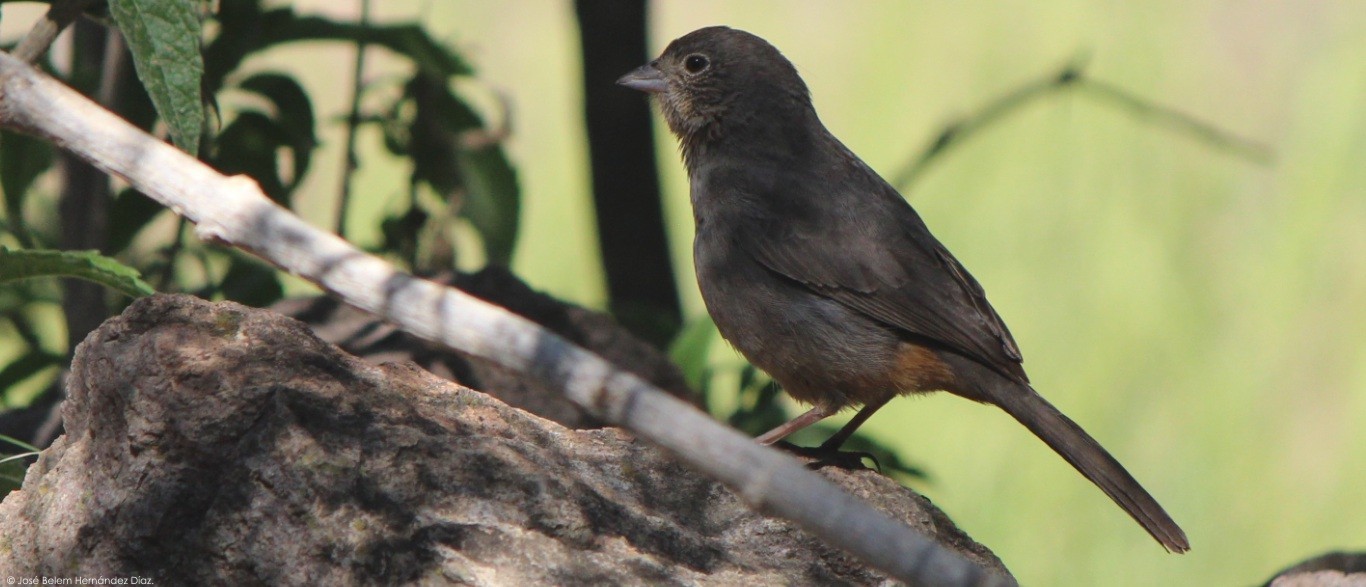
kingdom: Animalia
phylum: Chordata
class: Aves
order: Passeriformes
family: Passerellidae
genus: Melozone
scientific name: Melozone fusca
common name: Canyon towhee
